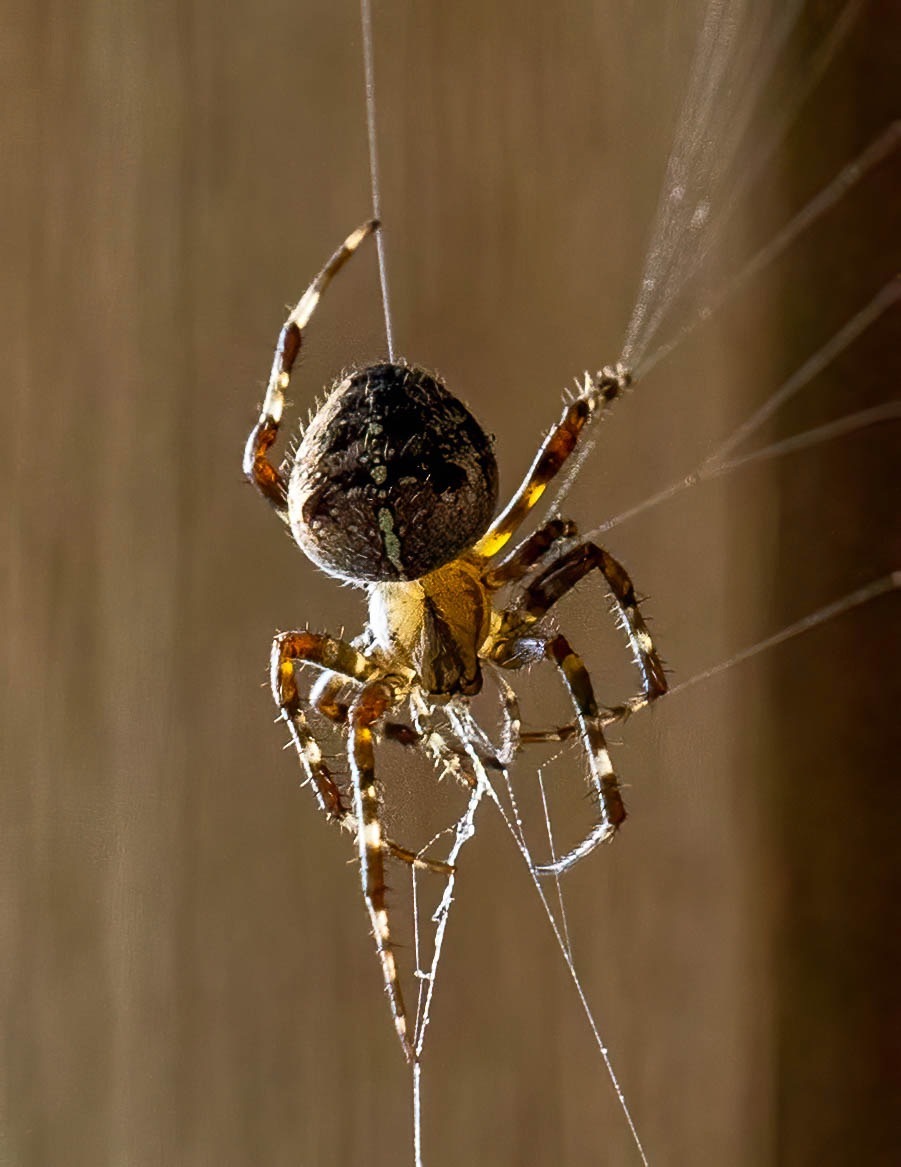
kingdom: Animalia
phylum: Arthropoda
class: Arachnida
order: Araneae
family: Araneidae
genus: Araneus
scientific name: Araneus diadematus
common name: Cross orbweaver
